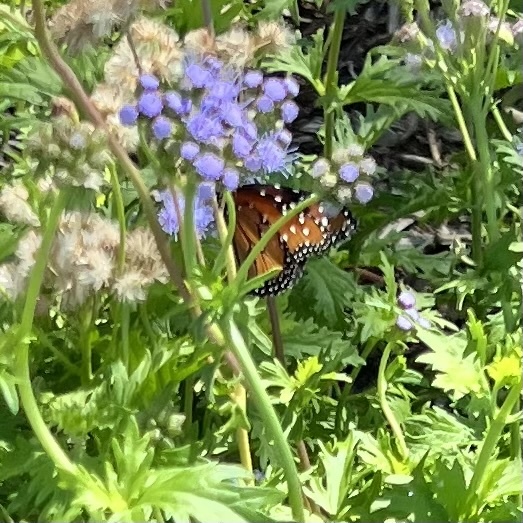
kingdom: Animalia
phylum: Arthropoda
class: Insecta
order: Lepidoptera
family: Nymphalidae
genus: Danaus
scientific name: Danaus gilippus
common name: Queen
